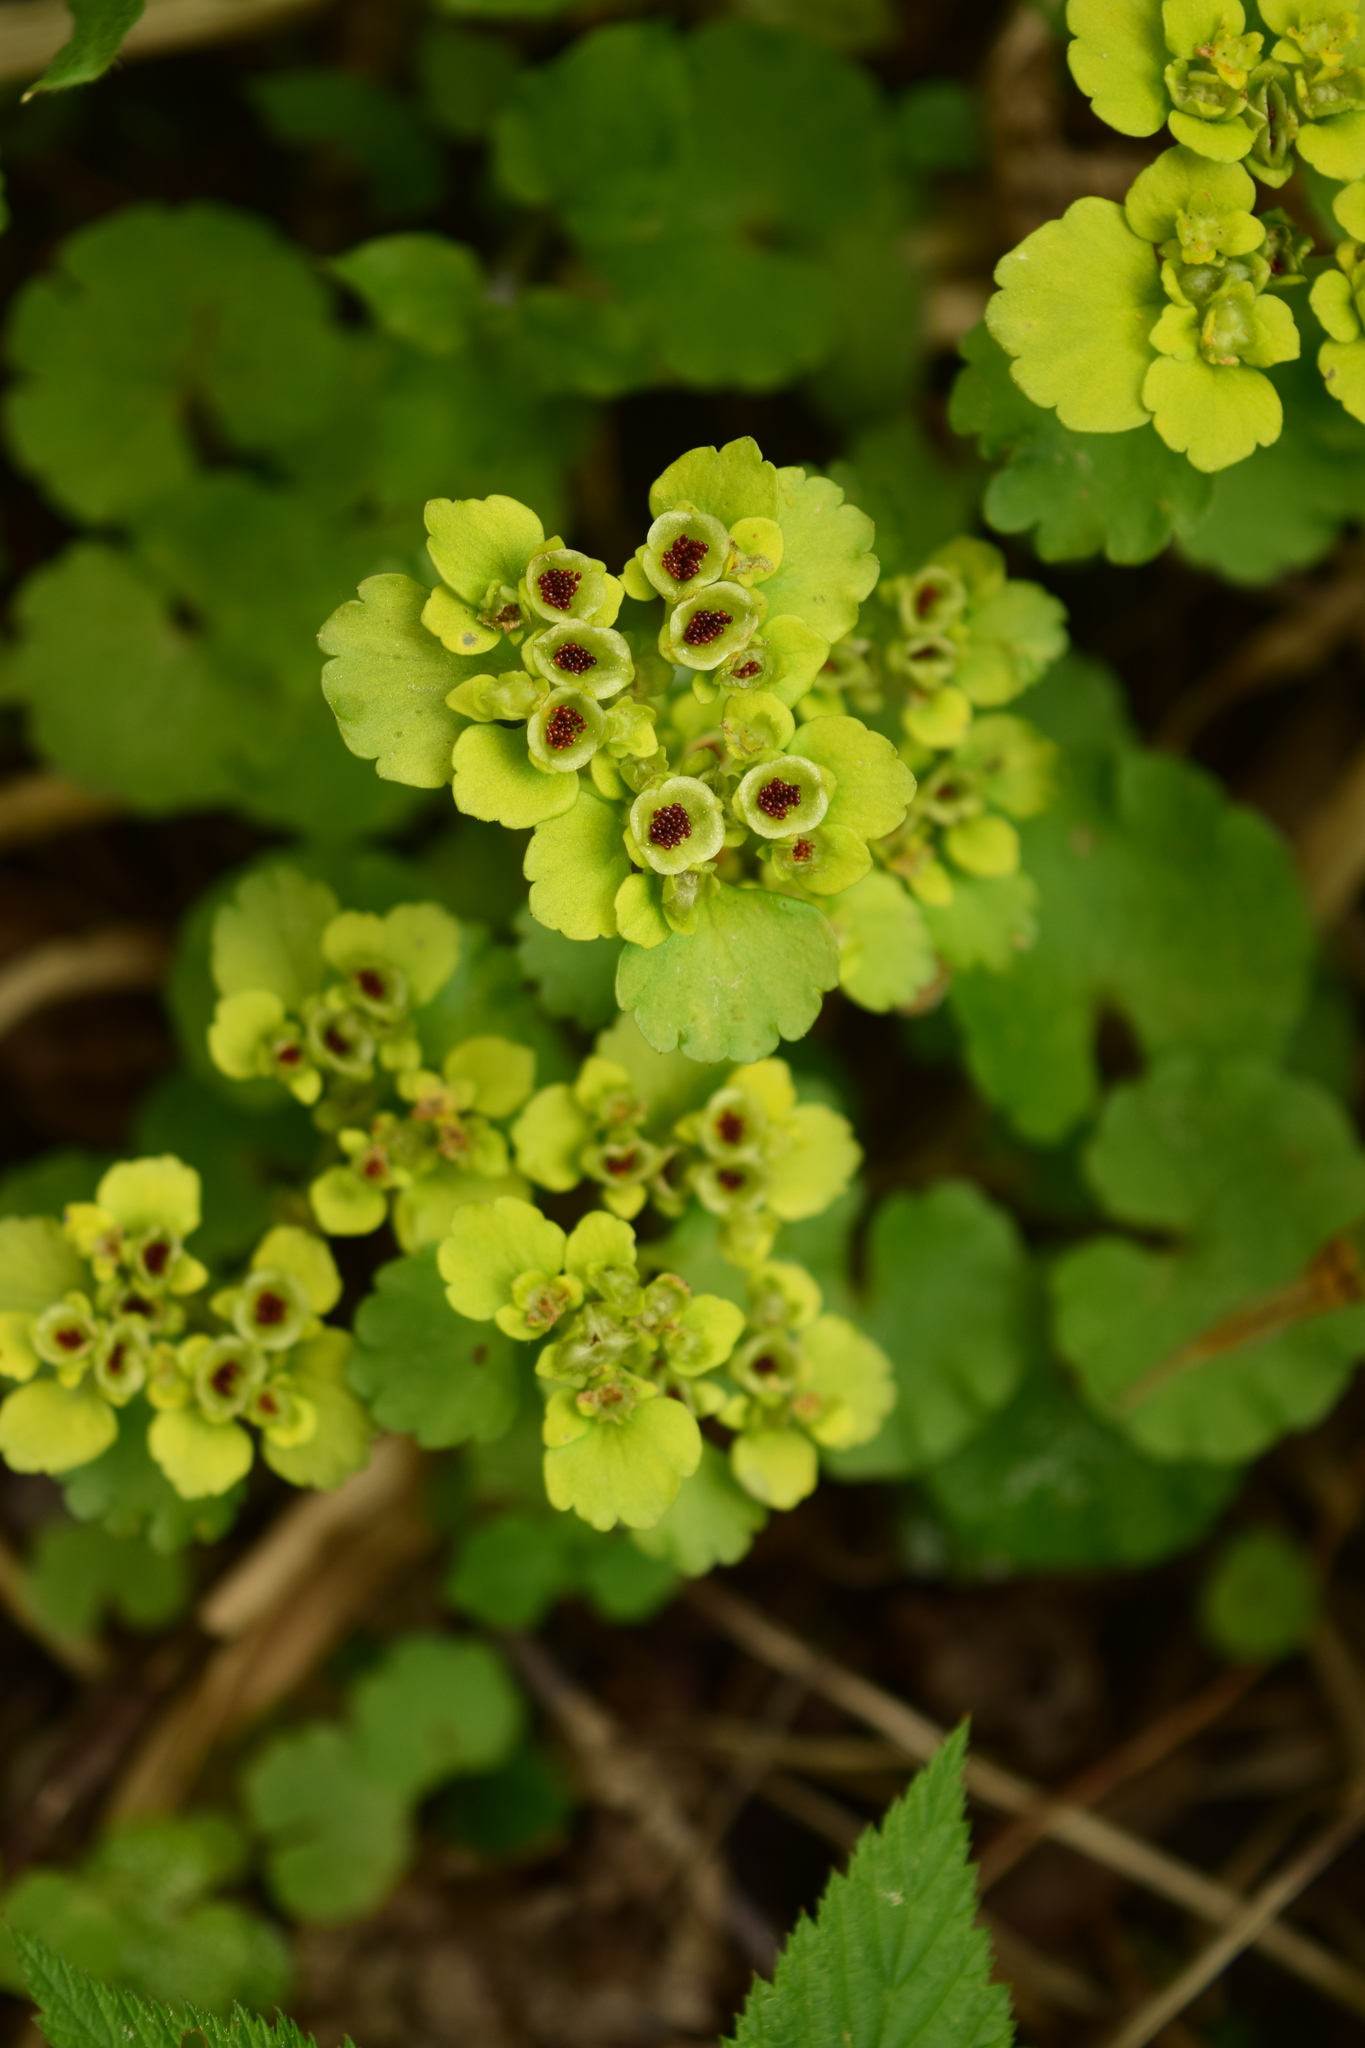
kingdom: Plantae
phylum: Tracheophyta
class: Magnoliopsida
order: Saxifragales
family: Saxifragaceae
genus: Chrysosplenium
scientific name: Chrysosplenium alternifolium
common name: Alternate-leaved golden-saxifrage
